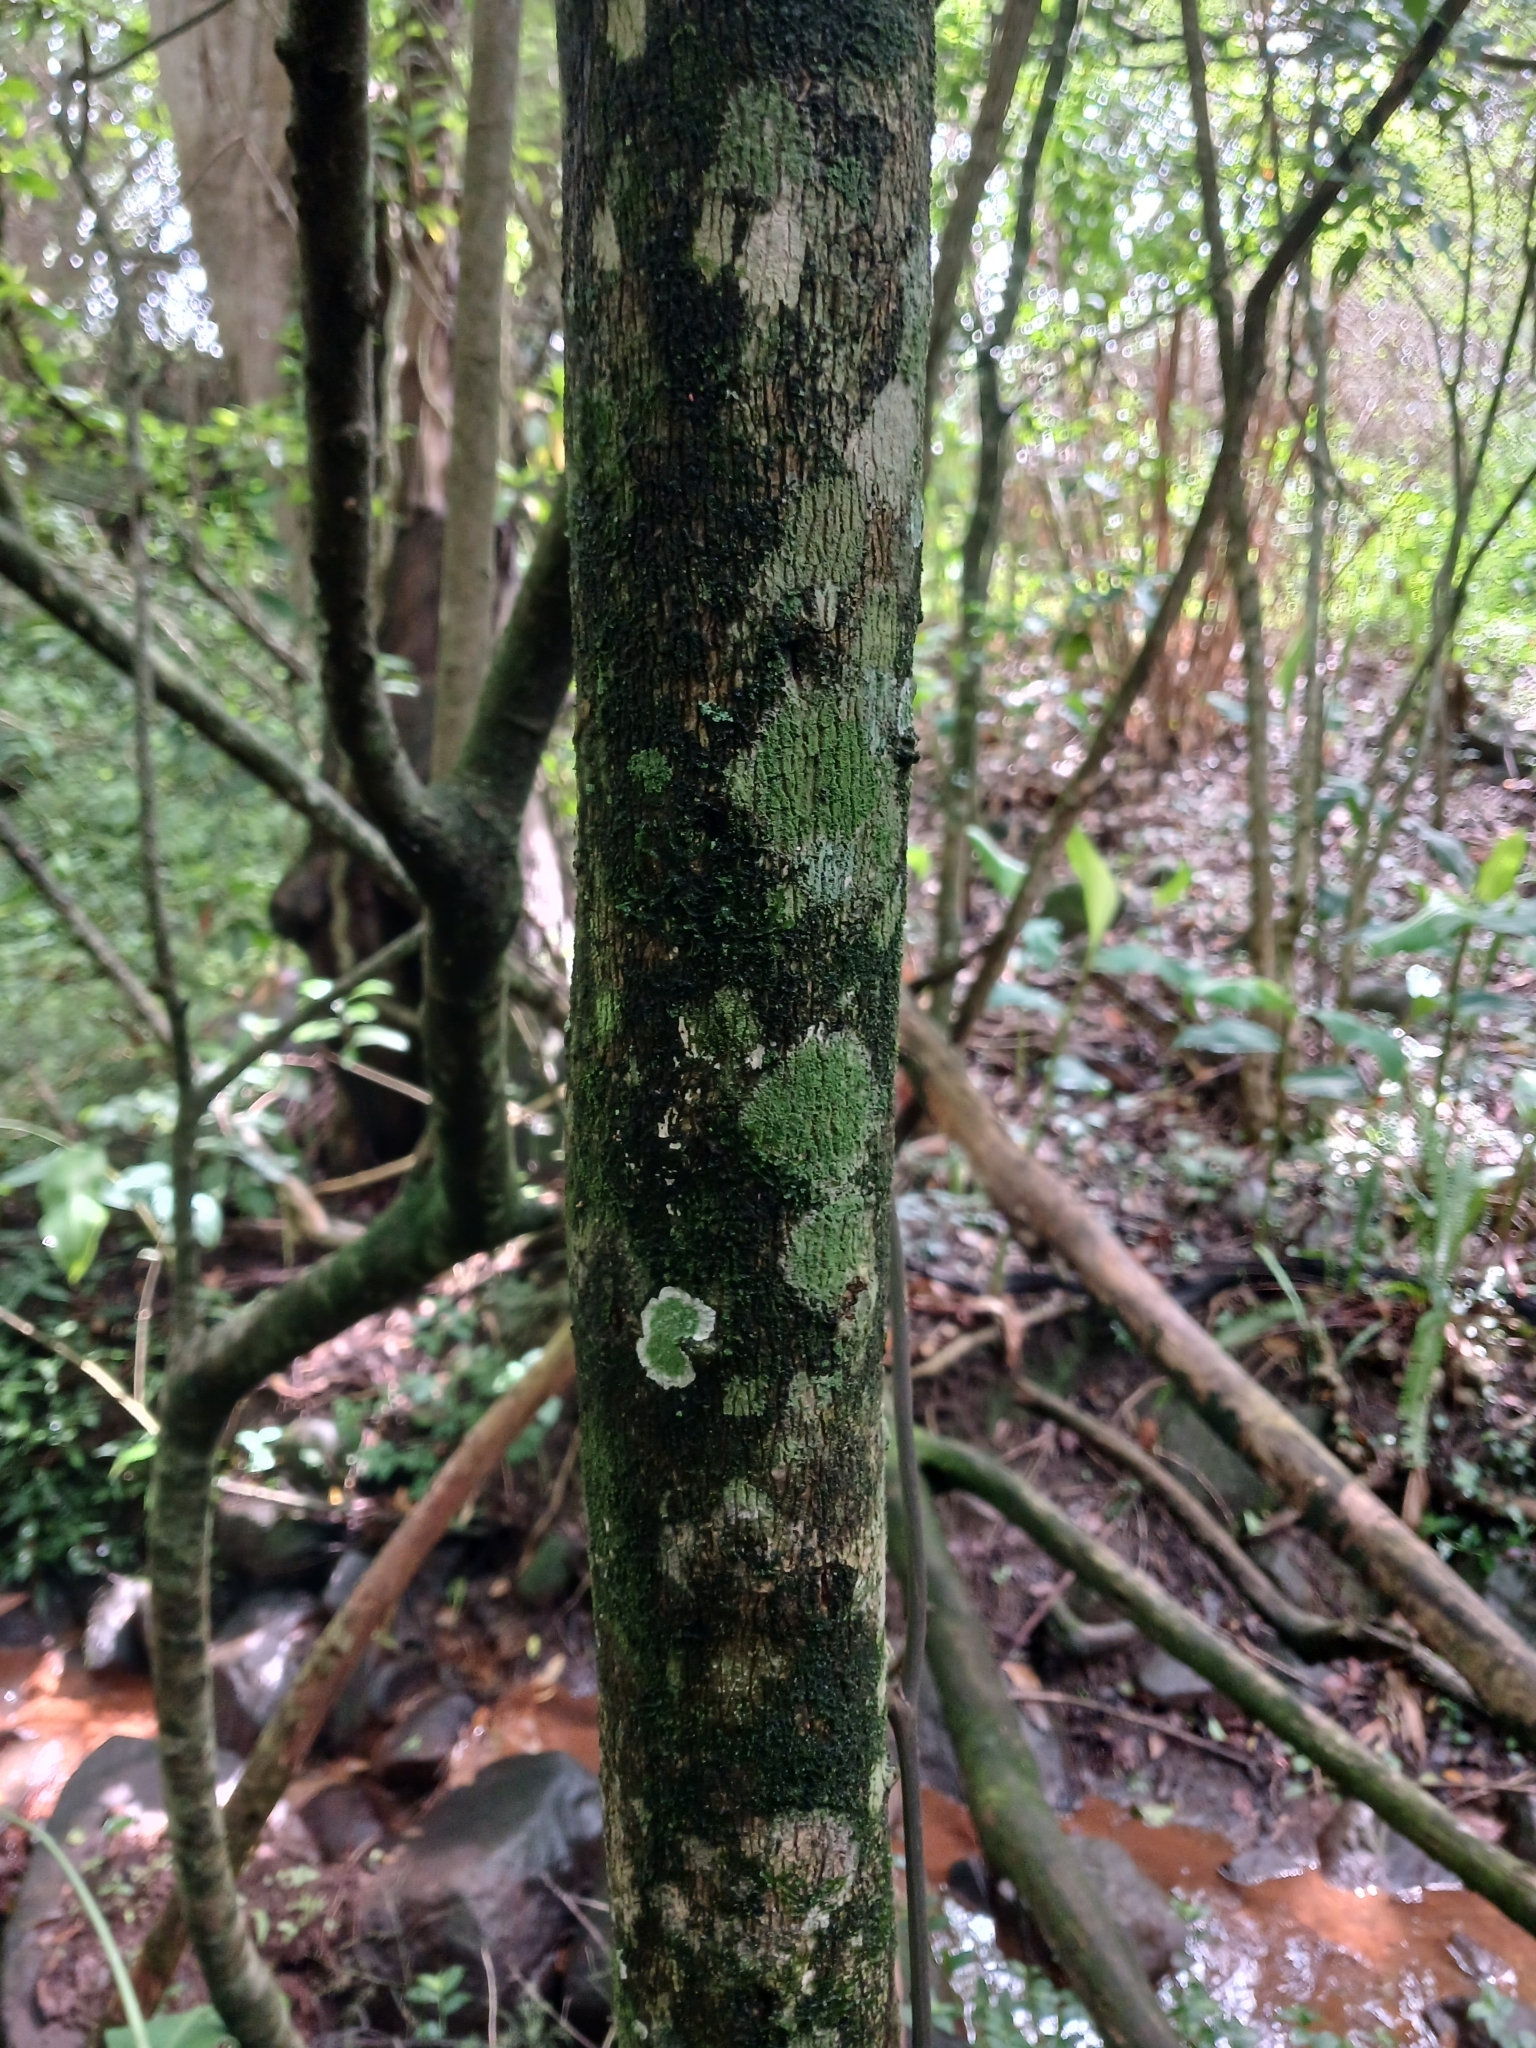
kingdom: Plantae
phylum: Tracheophyta
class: Magnoliopsida
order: Sapindales
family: Sapindaceae
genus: Allophylus
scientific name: Allophylus dregeanus
